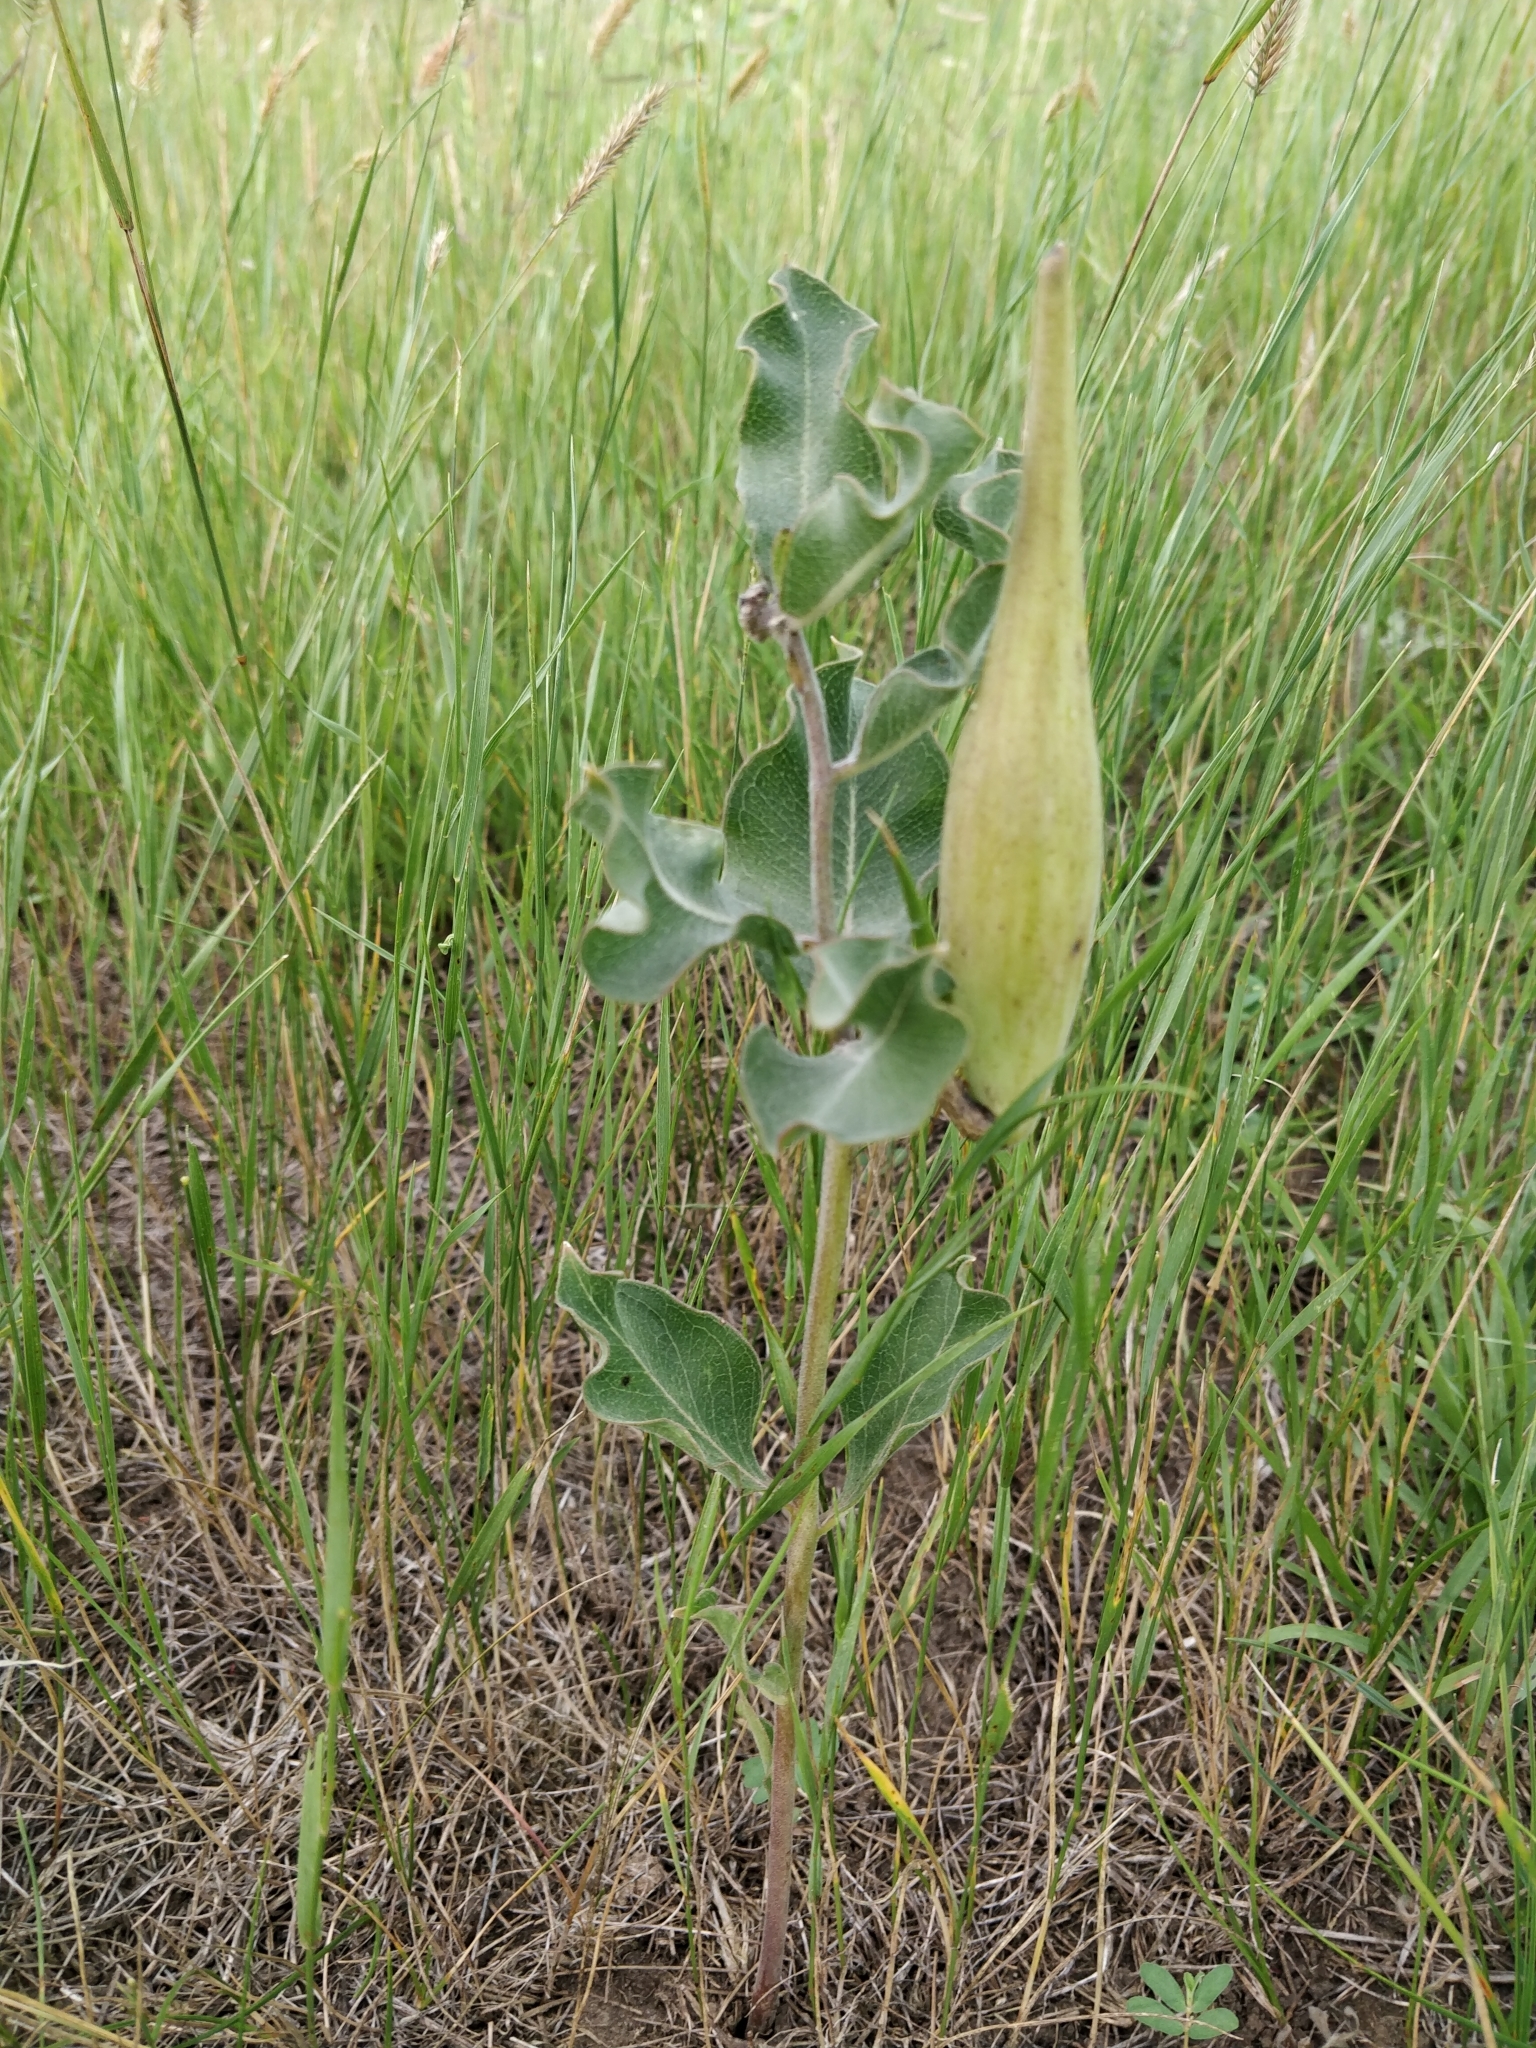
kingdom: Plantae
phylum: Tracheophyta
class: Magnoliopsida
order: Gentianales
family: Apocynaceae
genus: Asclepias
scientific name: Asclepias viridiflora
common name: Green comet milkweed
